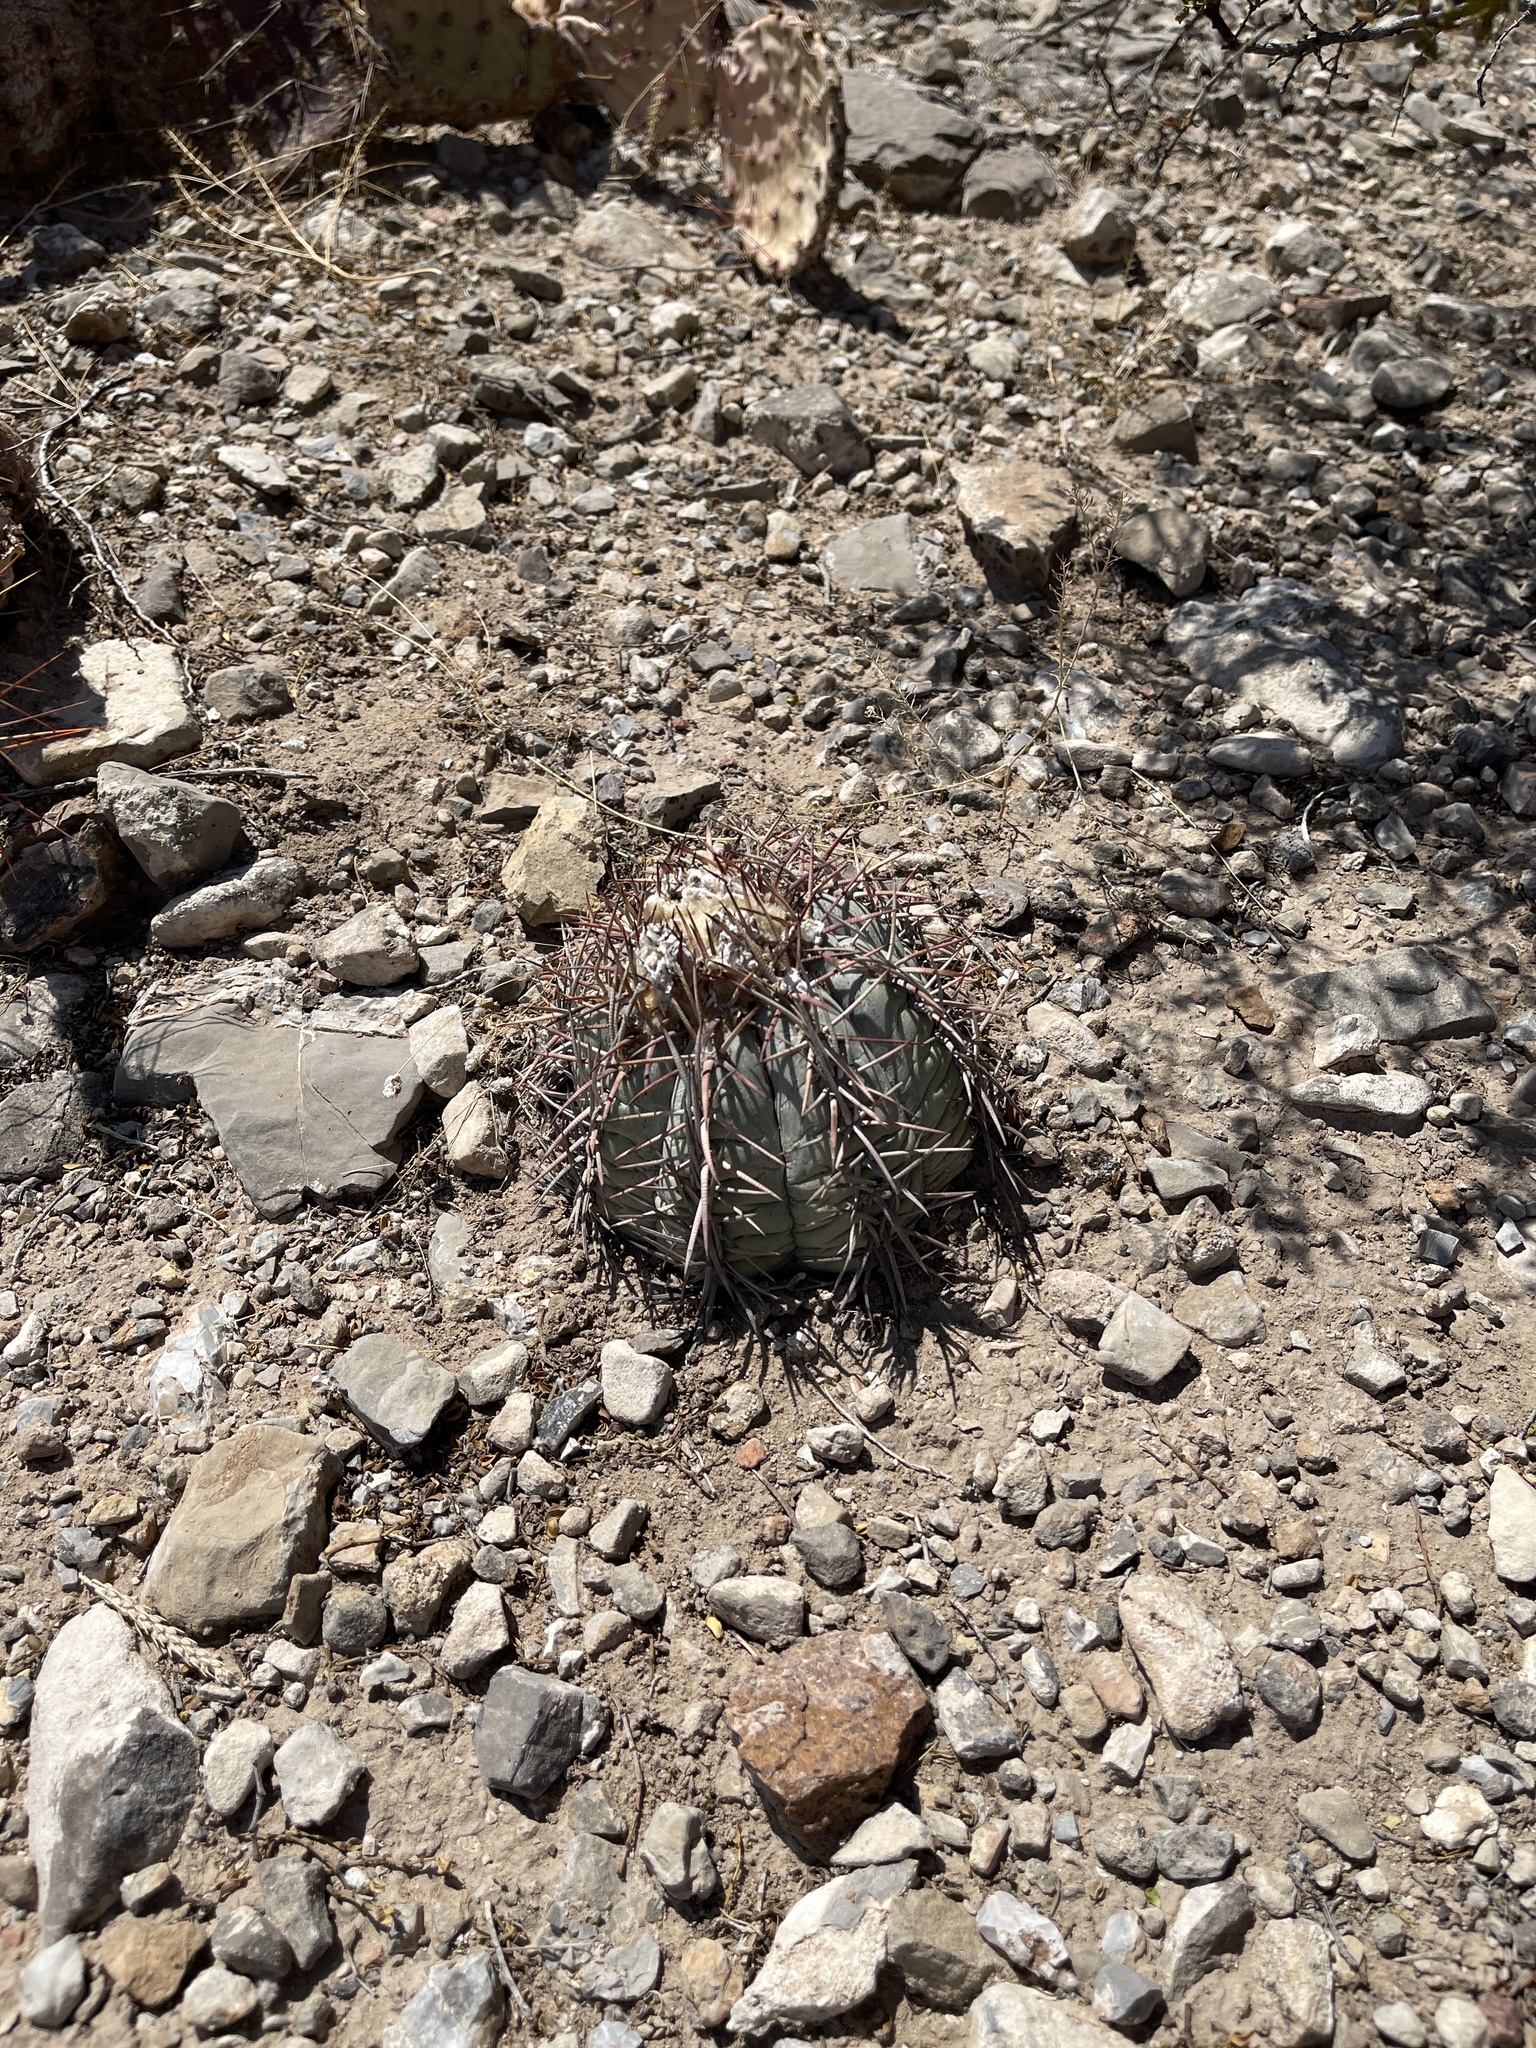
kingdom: Plantae
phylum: Tracheophyta
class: Magnoliopsida
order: Caryophyllales
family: Cactaceae
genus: Echinocactus
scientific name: Echinocactus horizonthalonius
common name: Devilshead
